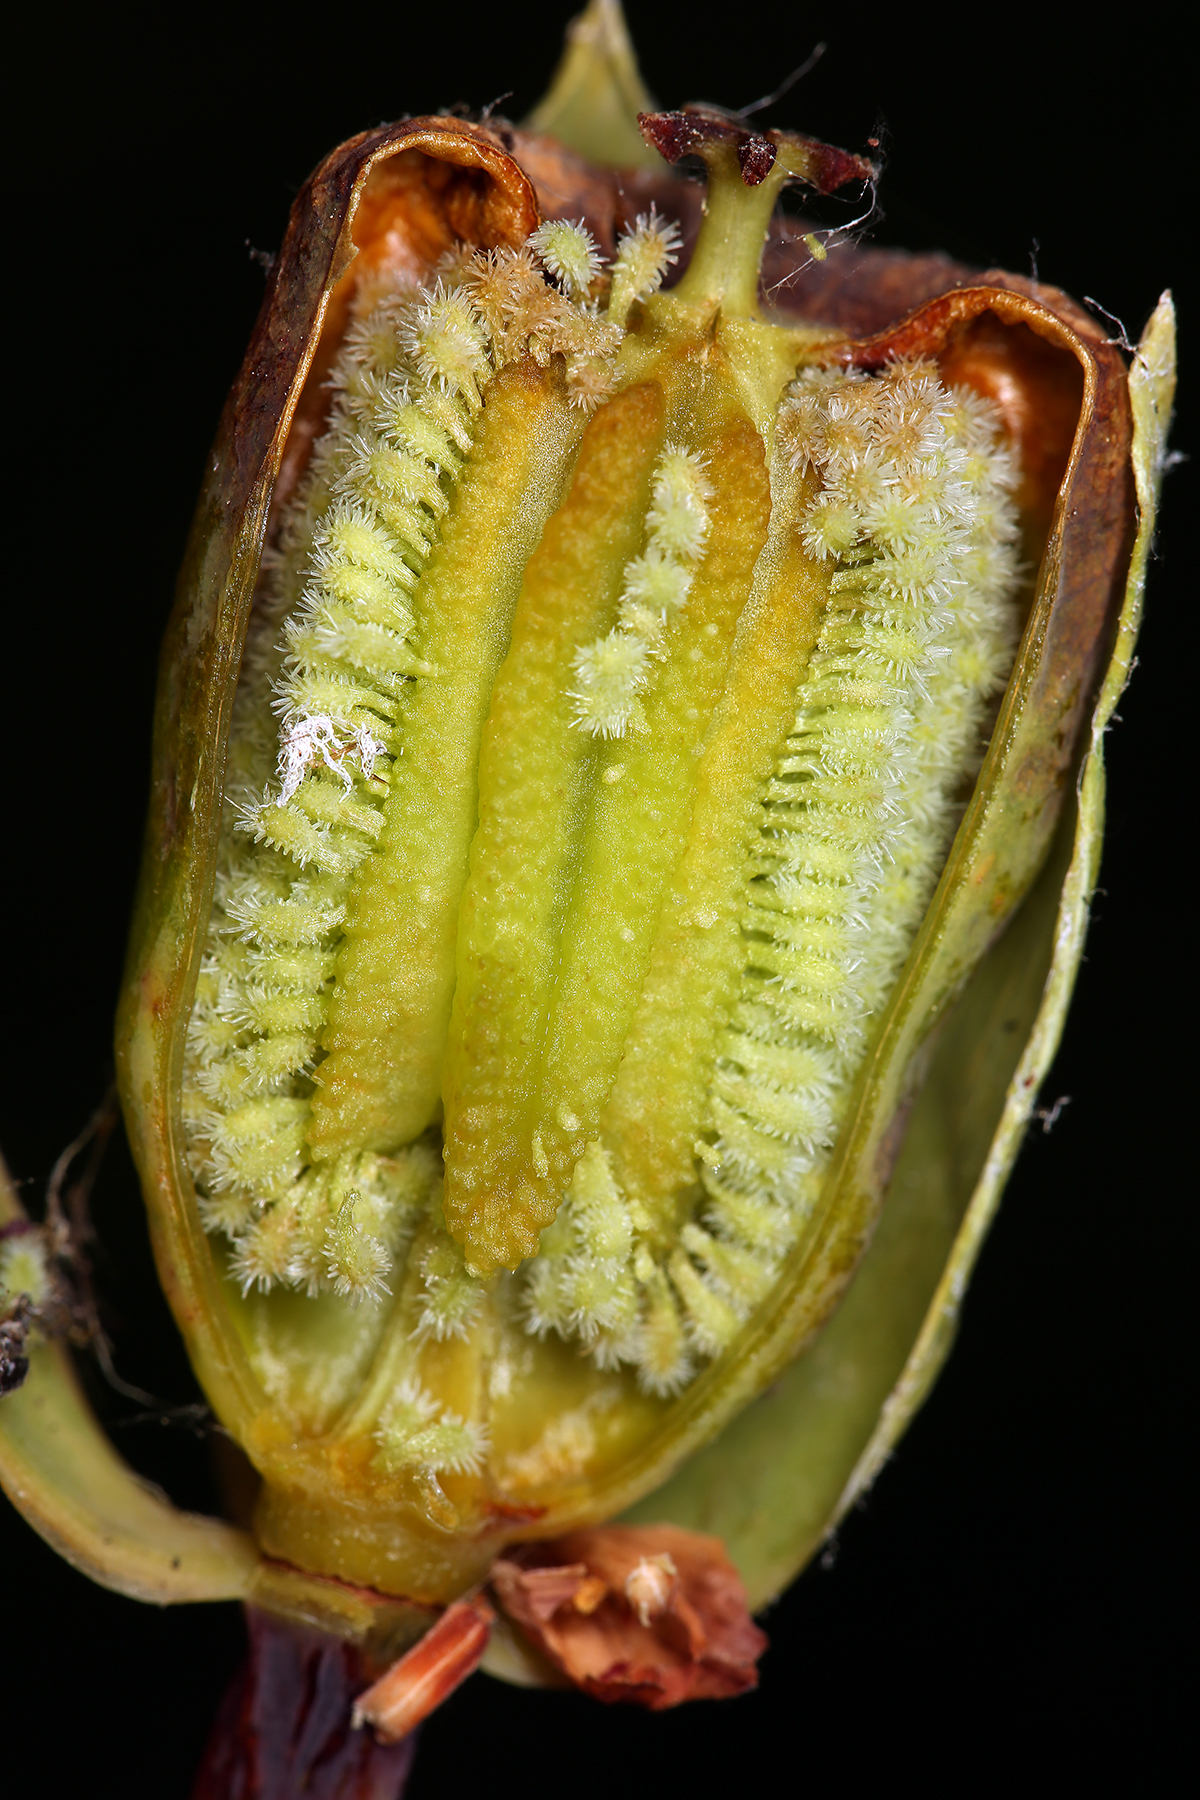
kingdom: Plantae
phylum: Tracheophyta
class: Magnoliopsida
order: Ericales
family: Sarraceniaceae
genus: Darlingtonia
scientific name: Darlingtonia californica
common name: California pitcher plant
